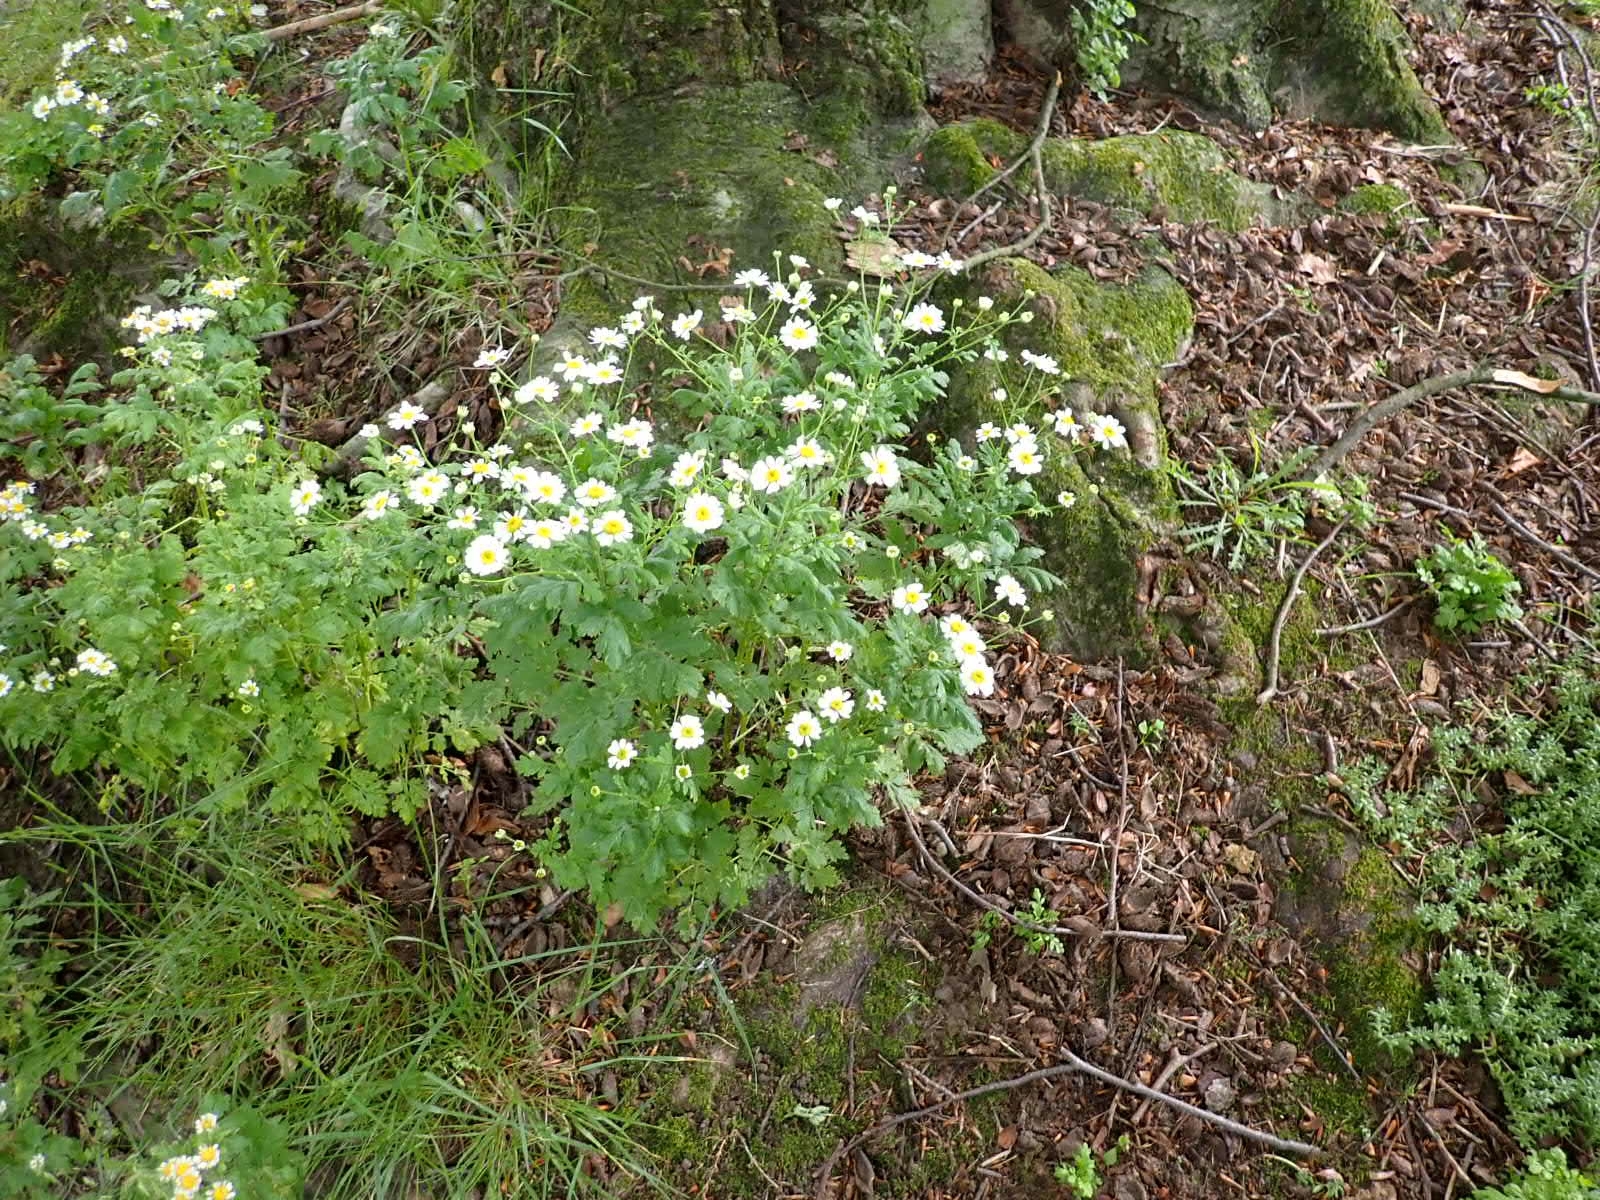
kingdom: Plantae
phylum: Tracheophyta
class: Magnoliopsida
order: Asterales
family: Asteraceae
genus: Tanacetum
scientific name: Tanacetum parthenium
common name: Feverfew
